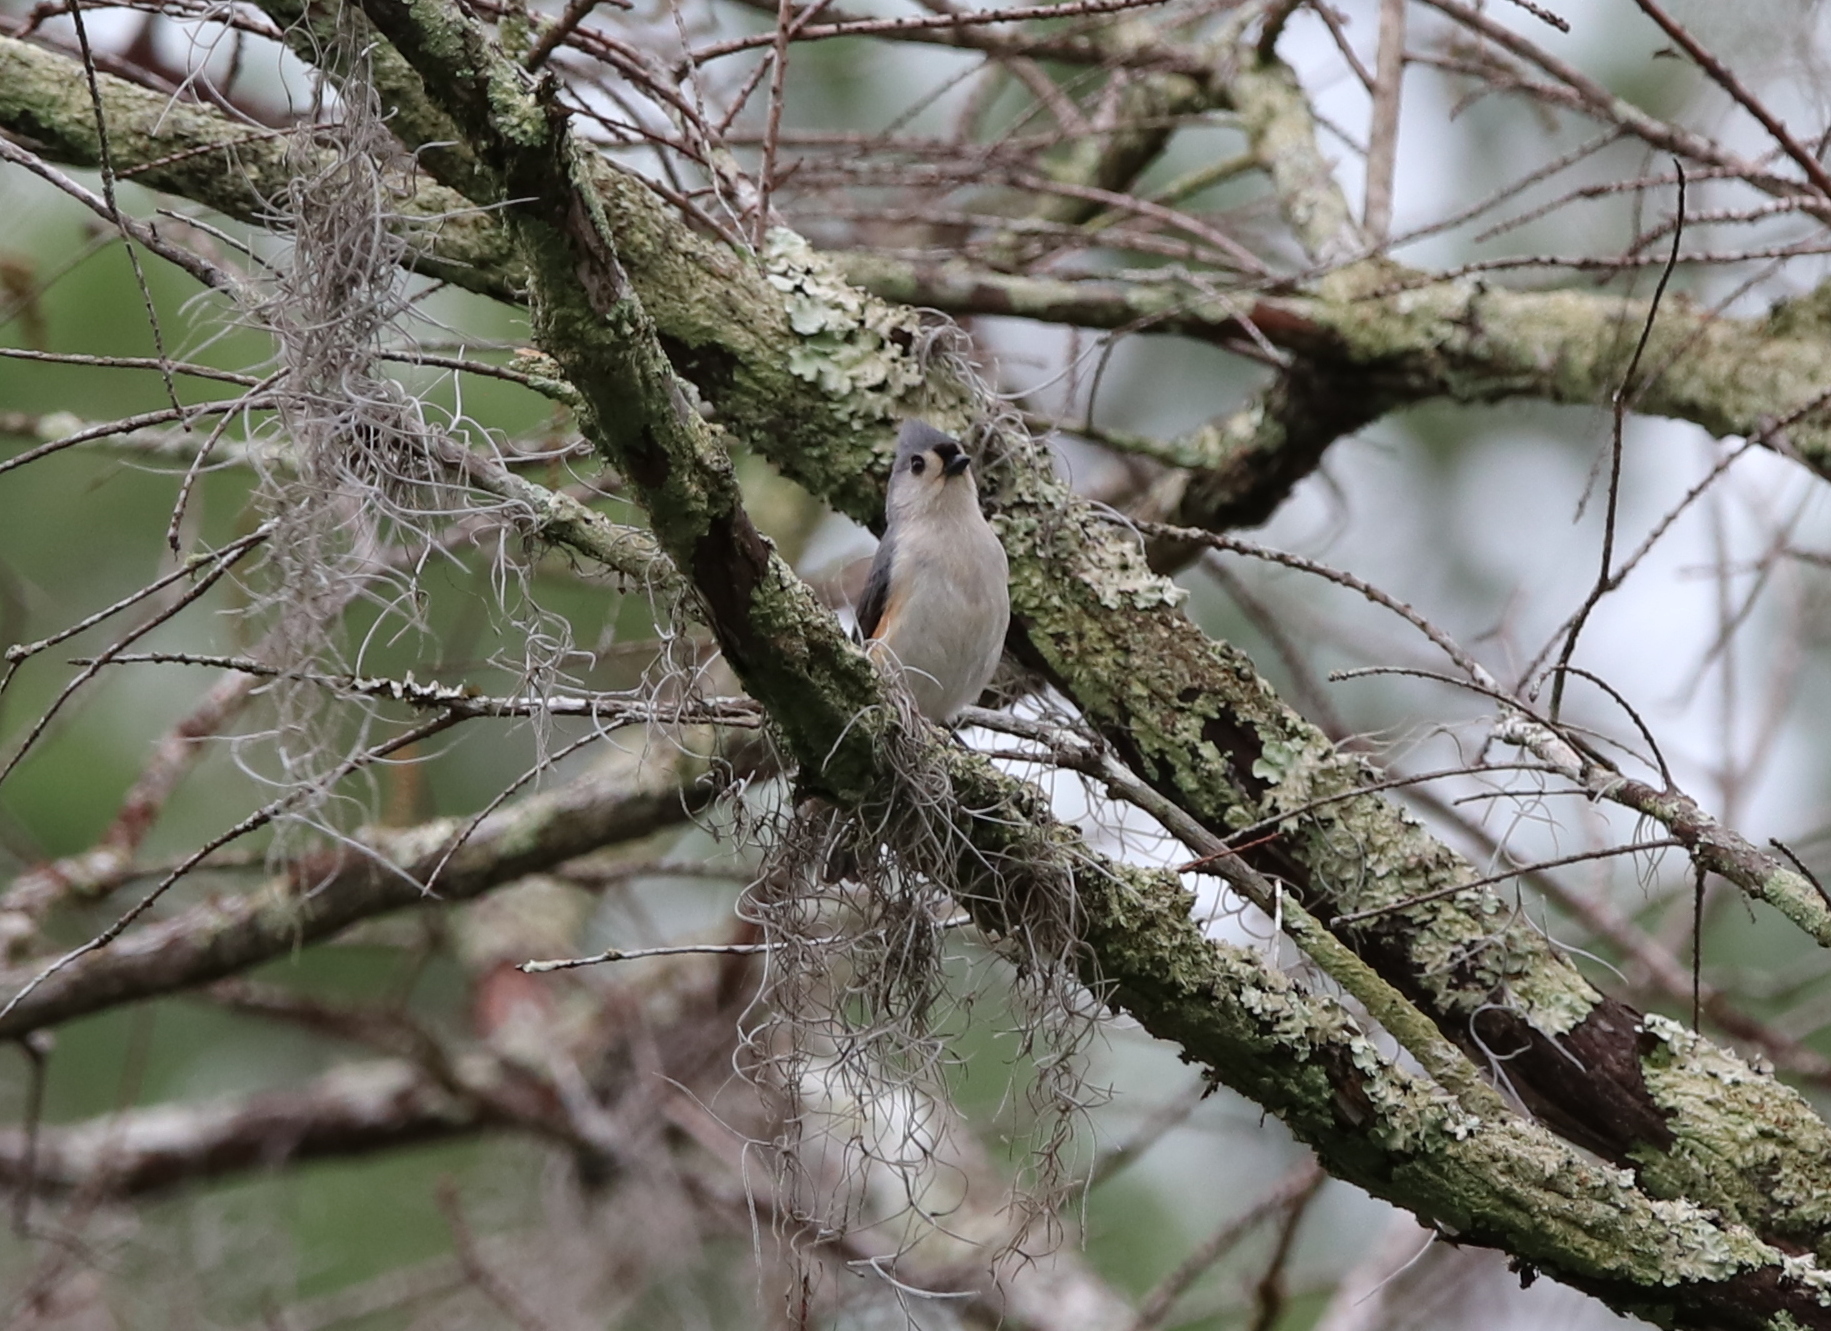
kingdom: Animalia
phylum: Chordata
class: Aves
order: Passeriformes
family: Paridae
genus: Baeolophus
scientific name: Baeolophus bicolor
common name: Tufted titmouse
